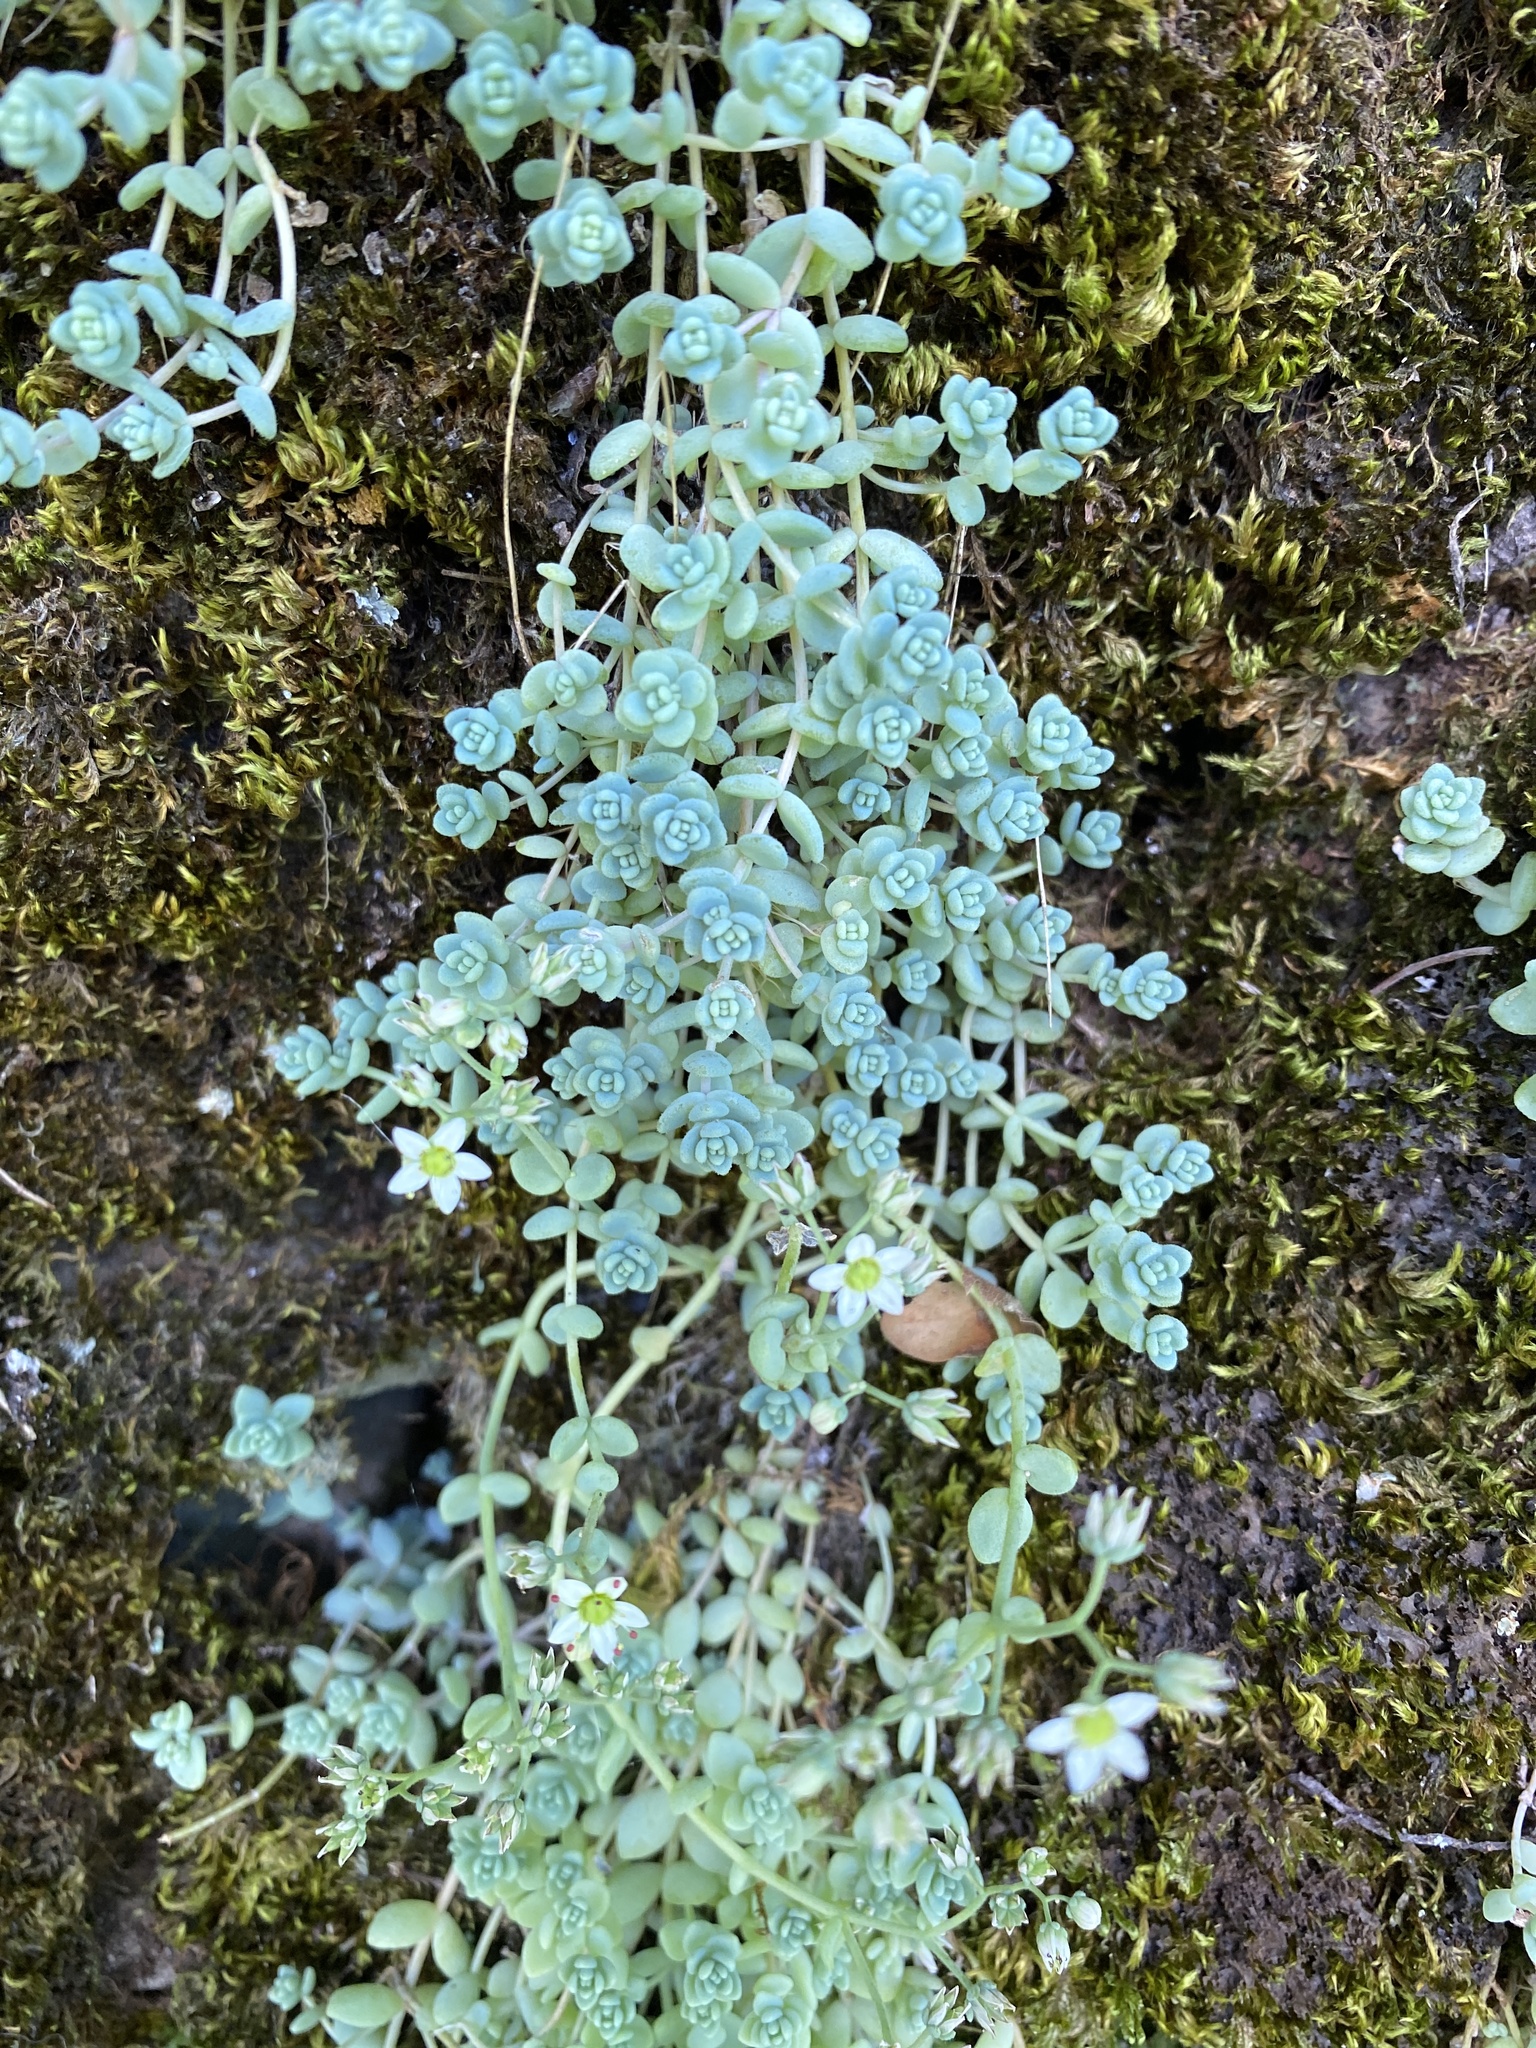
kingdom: Plantae
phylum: Tracheophyta
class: Magnoliopsida
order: Saxifragales
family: Crassulaceae
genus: Sedum
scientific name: Sedum dasyphyllum
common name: Thick-leaf stonecrop
